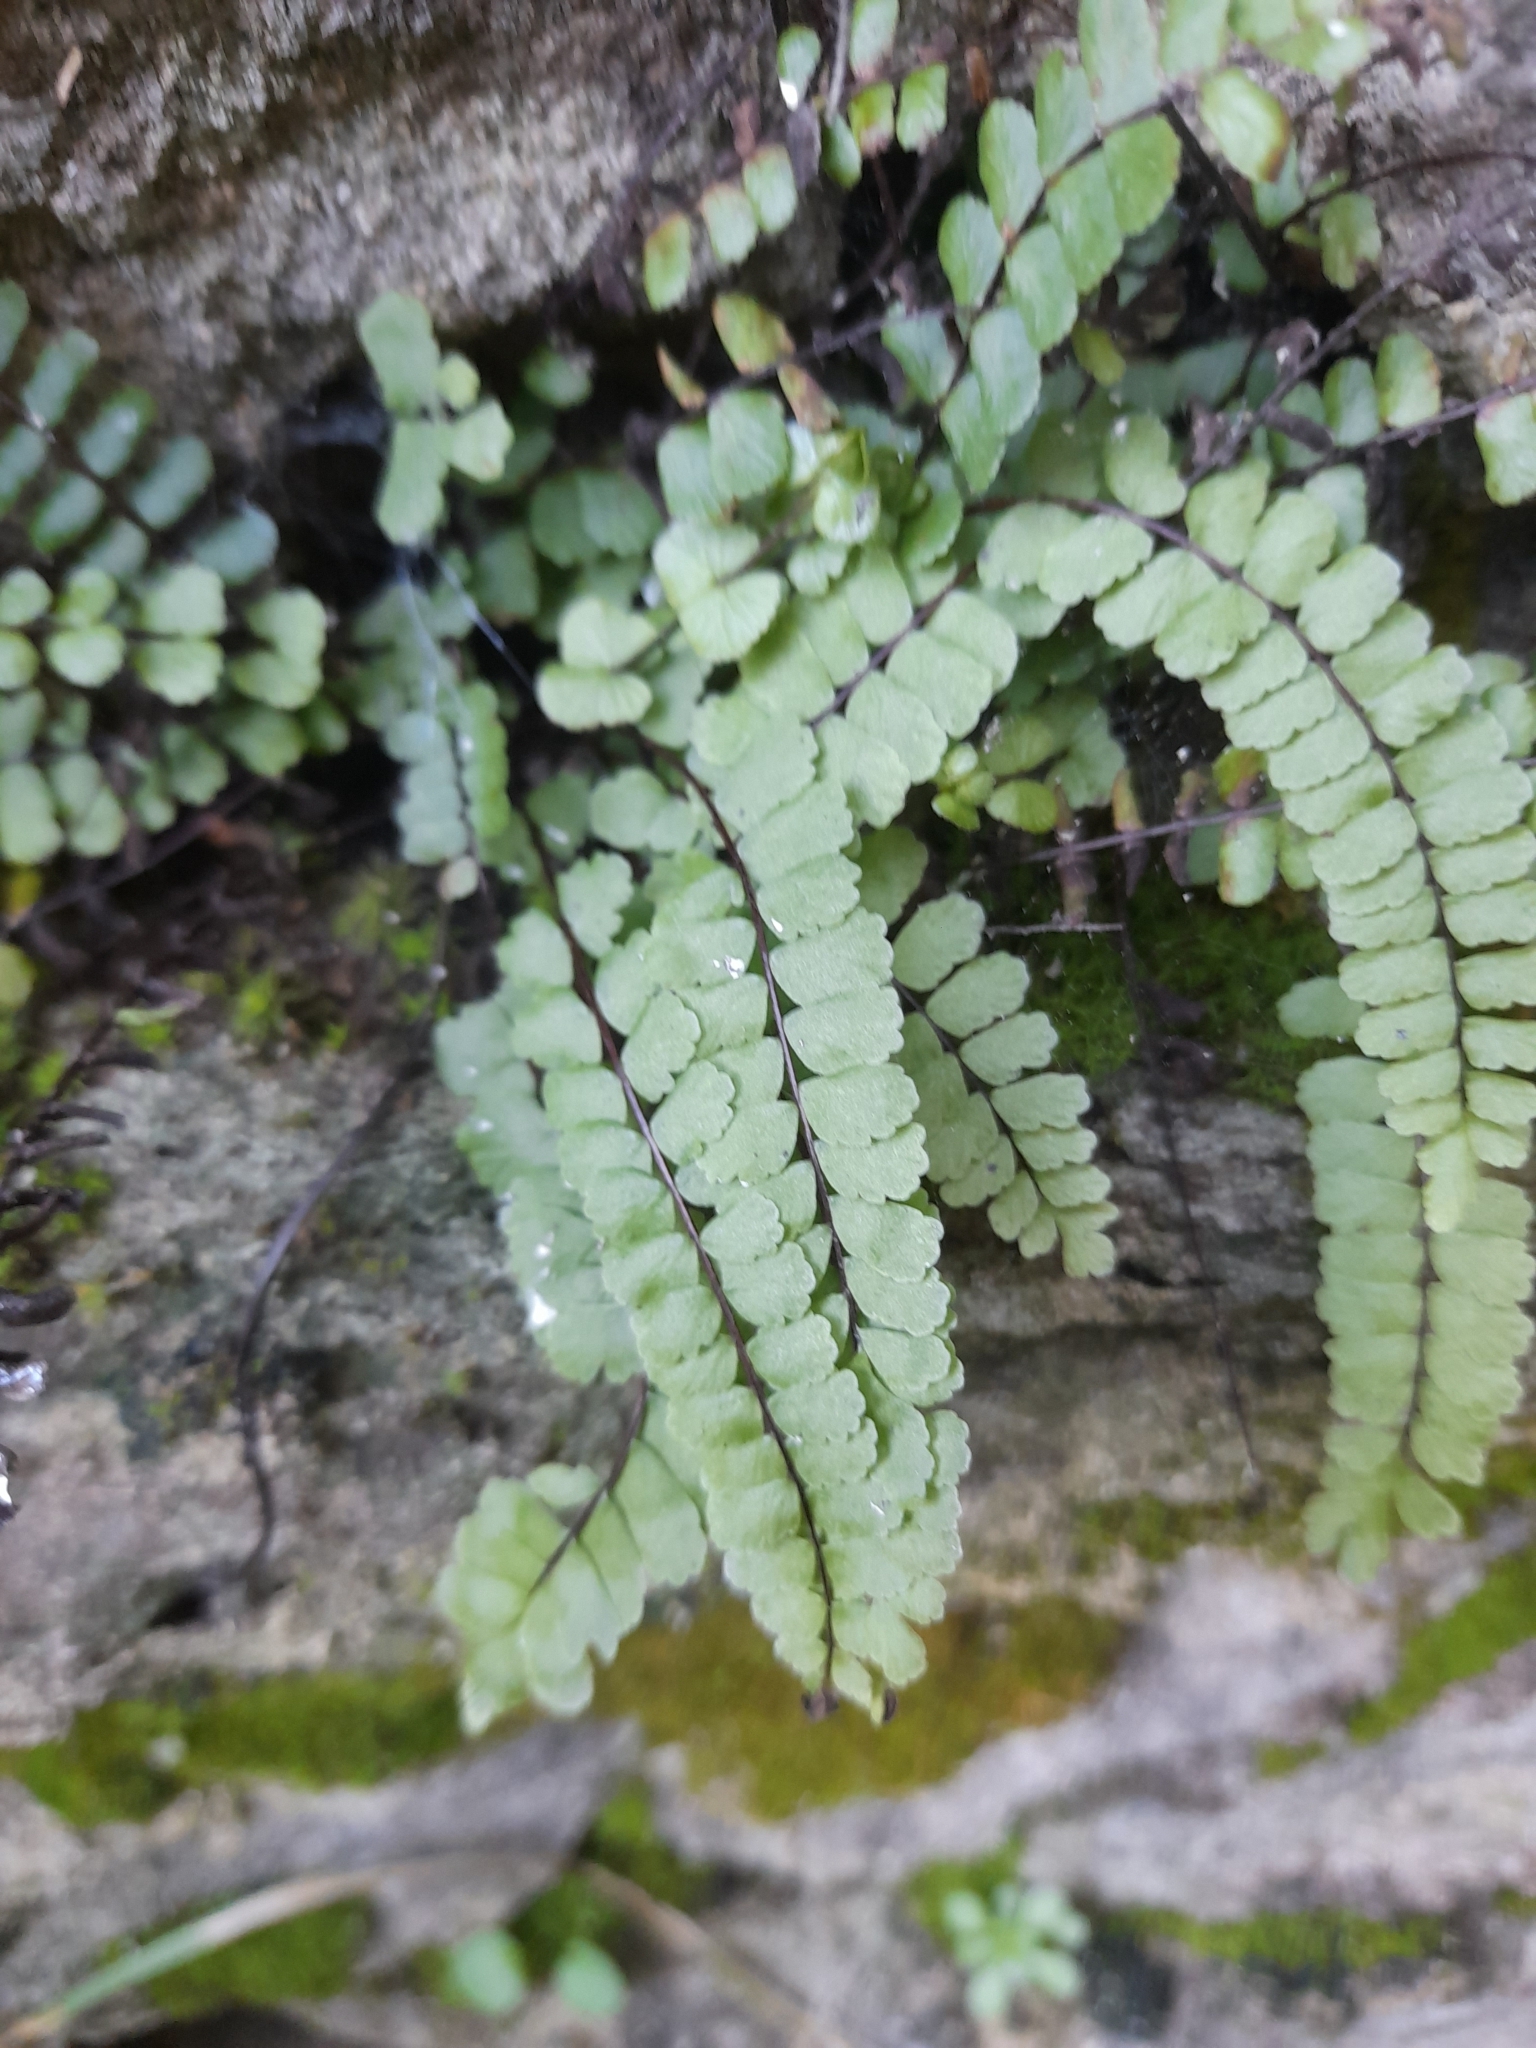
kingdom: Plantae
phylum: Tracheophyta
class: Polypodiopsida
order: Polypodiales
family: Aspleniaceae
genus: Asplenium
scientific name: Asplenium trichomanes
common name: Maidenhair spleenwort
